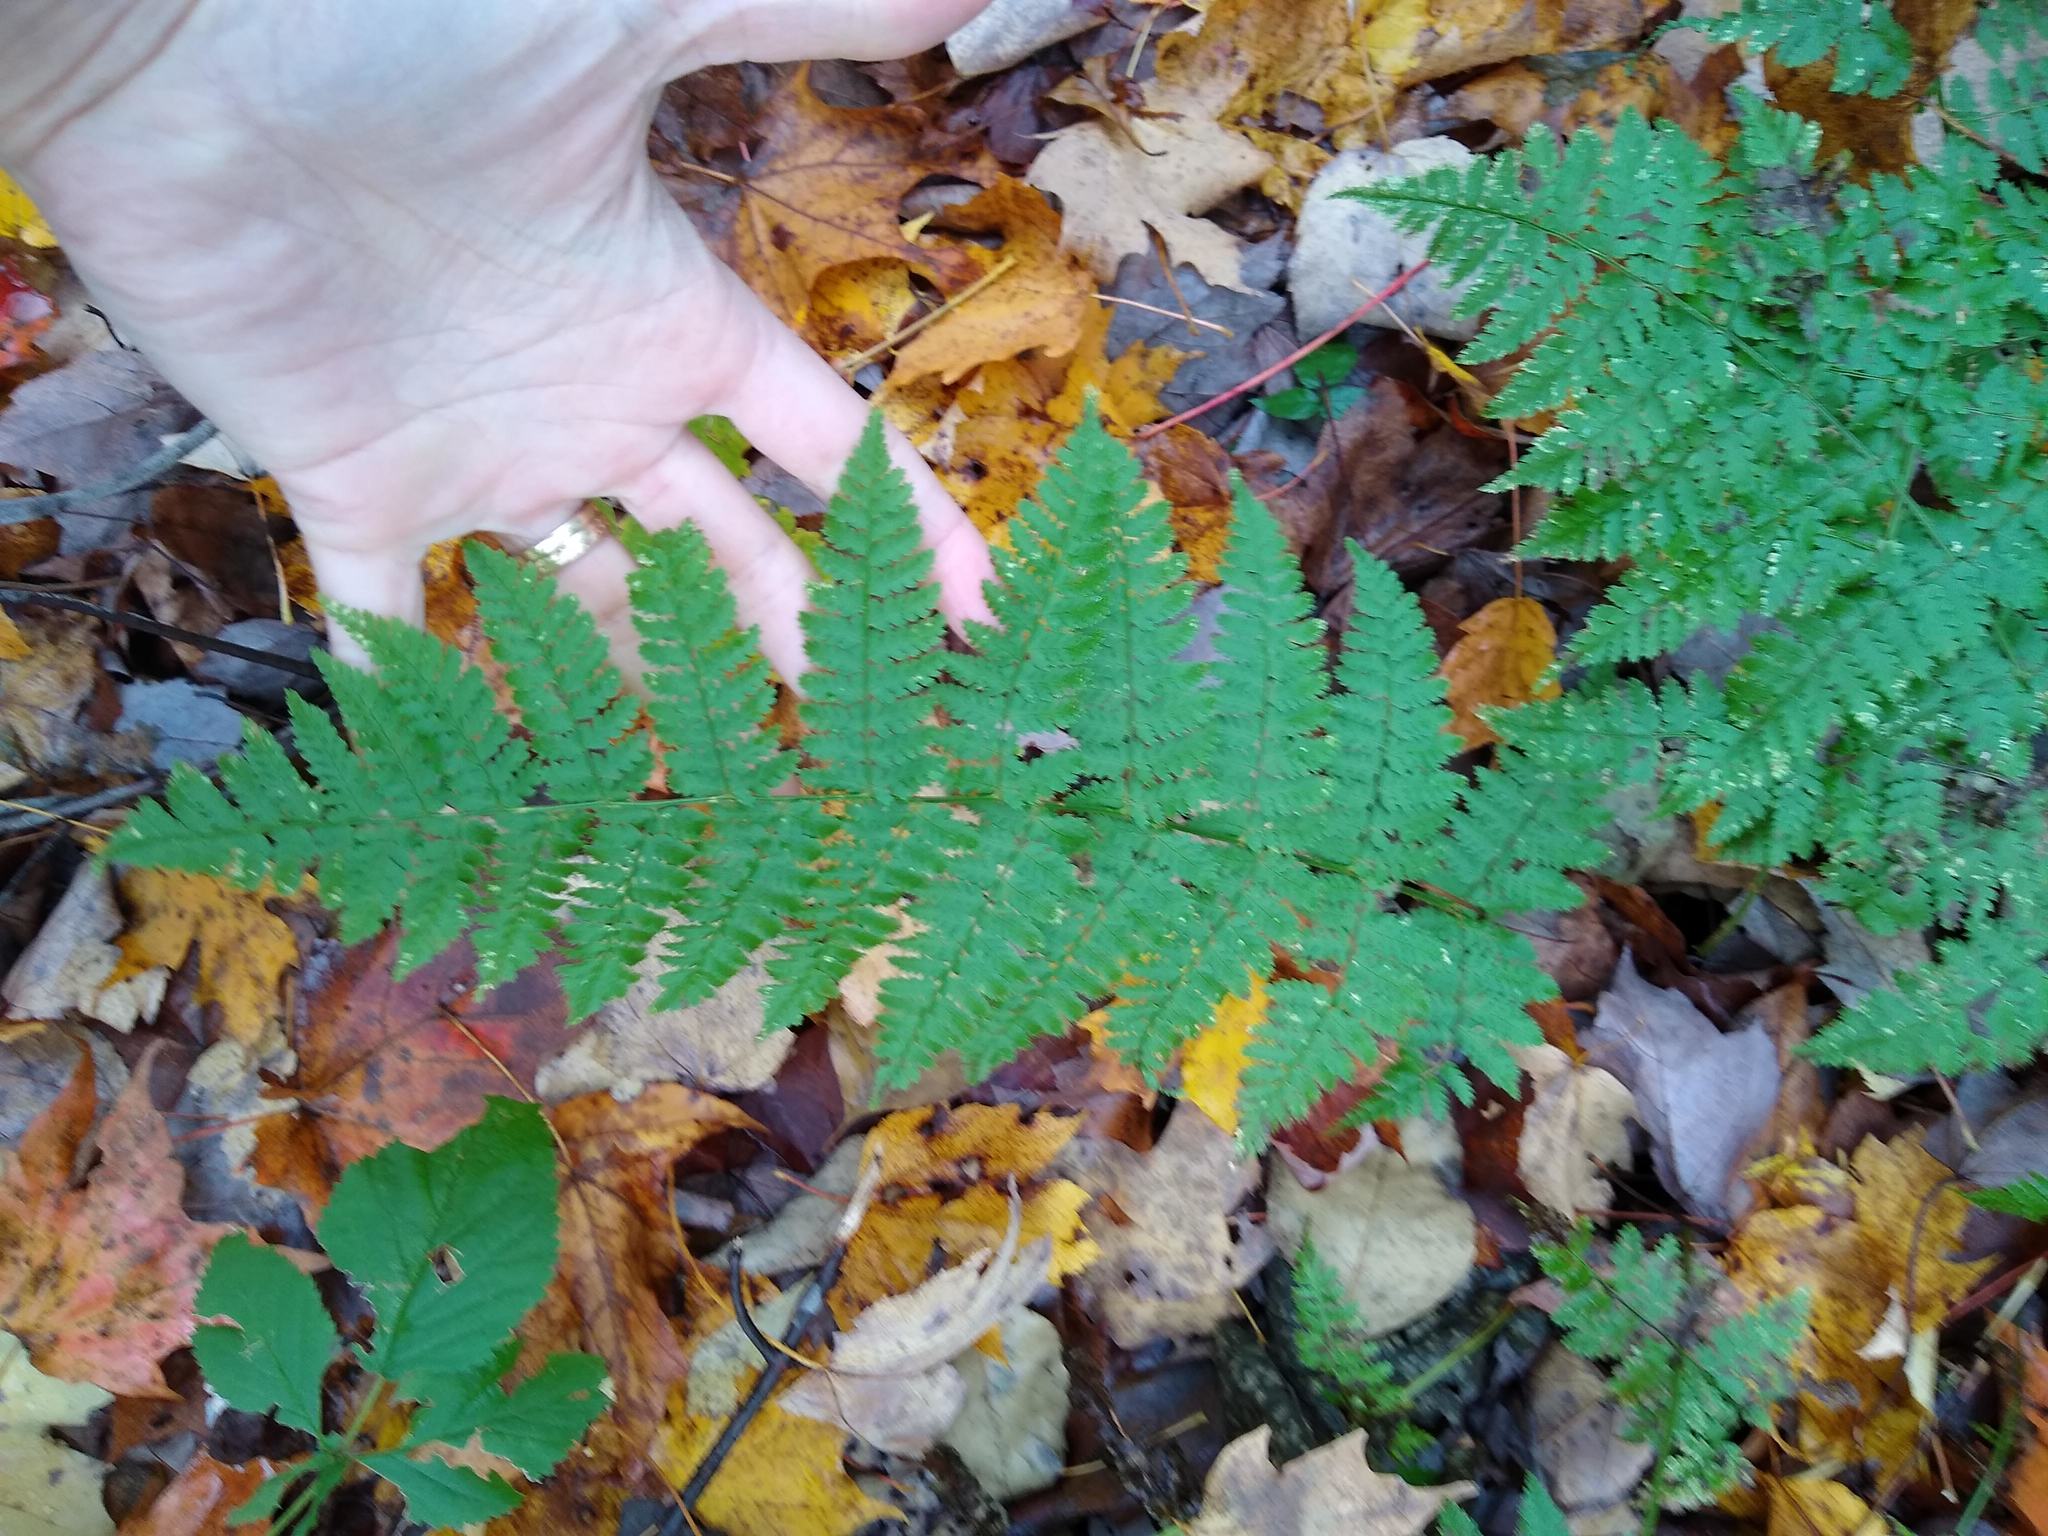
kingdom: Plantae
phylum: Tracheophyta
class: Polypodiopsida
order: Polypodiales
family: Dryopteridaceae
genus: Dryopteris
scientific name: Dryopteris intermedia
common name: Evergreen wood fern
